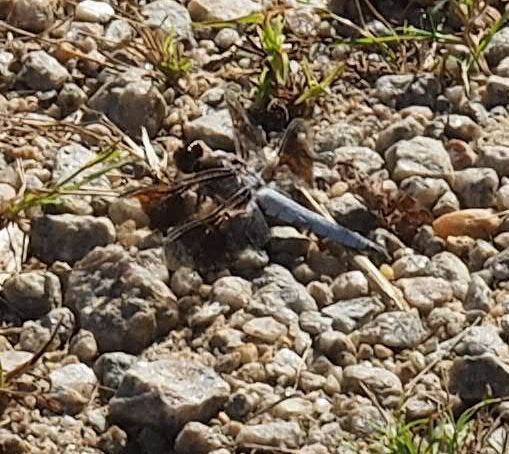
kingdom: Animalia
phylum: Arthropoda
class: Insecta
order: Odonata
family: Libellulidae
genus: Plathemis
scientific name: Plathemis lydia
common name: Common whitetail
